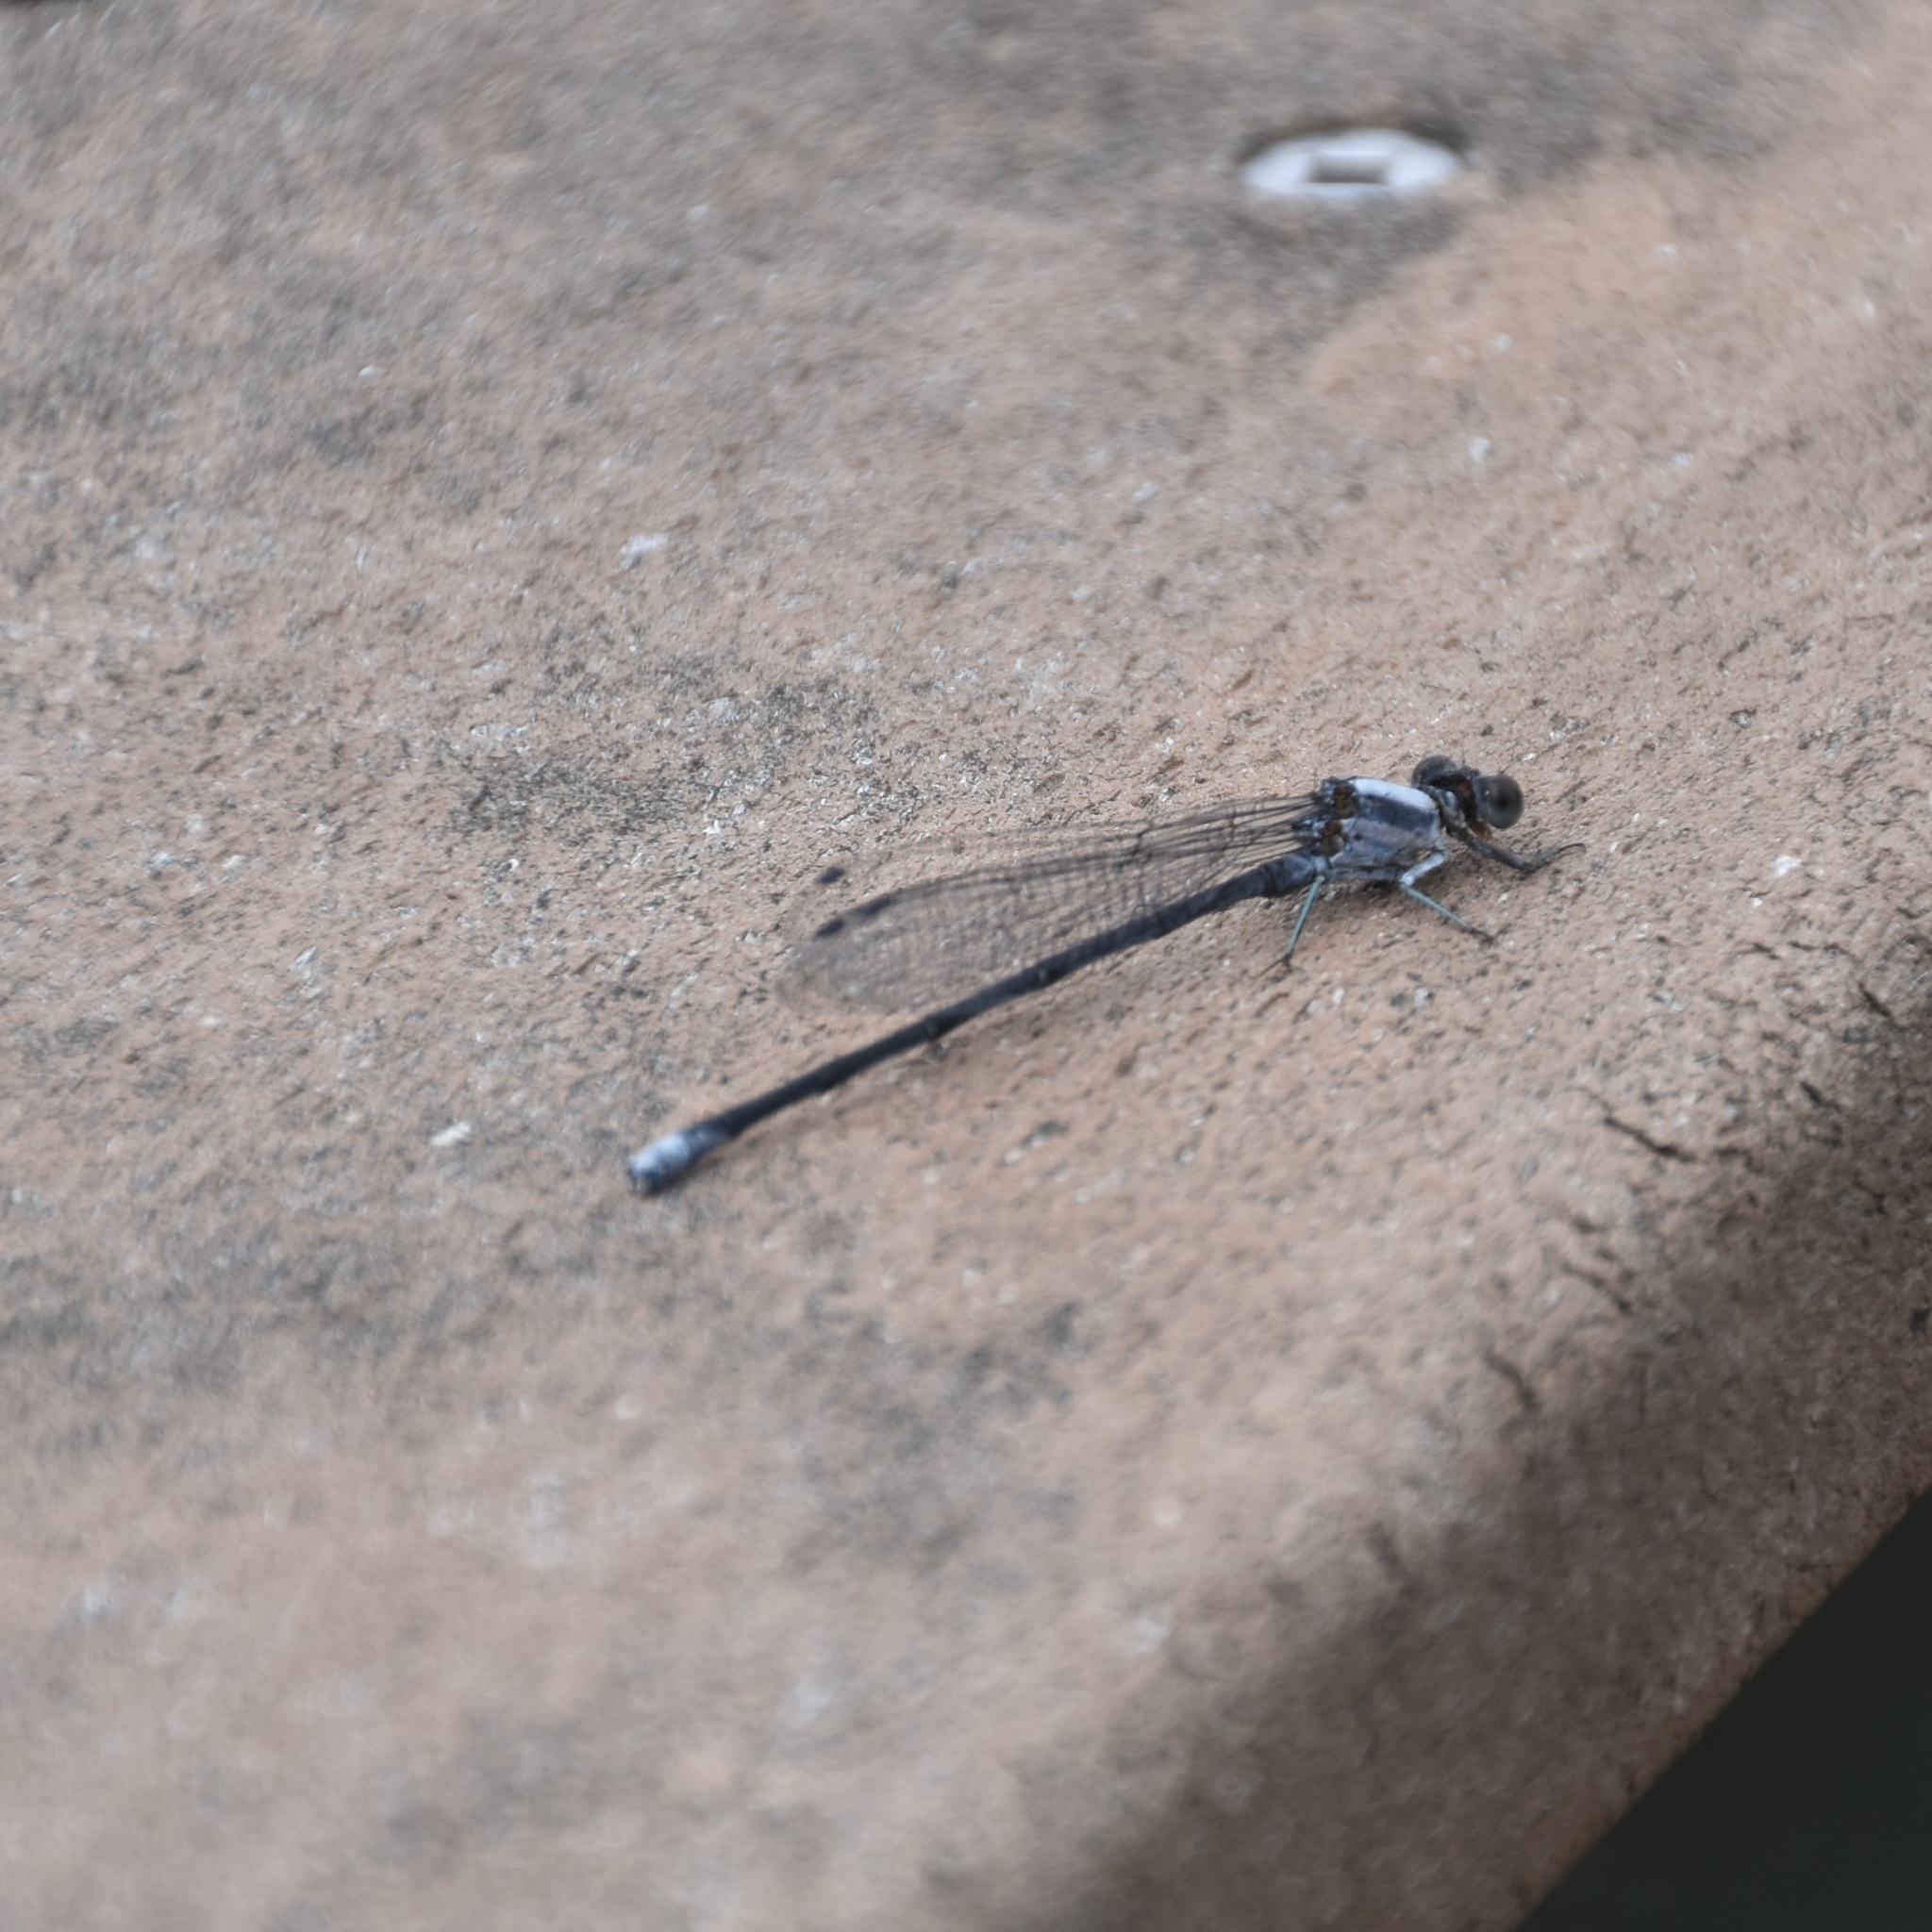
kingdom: Animalia
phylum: Arthropoda
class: Insecta
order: Odonata
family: Coenagrionidae
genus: Argia
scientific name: Argia moesta
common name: Powdered dancer
